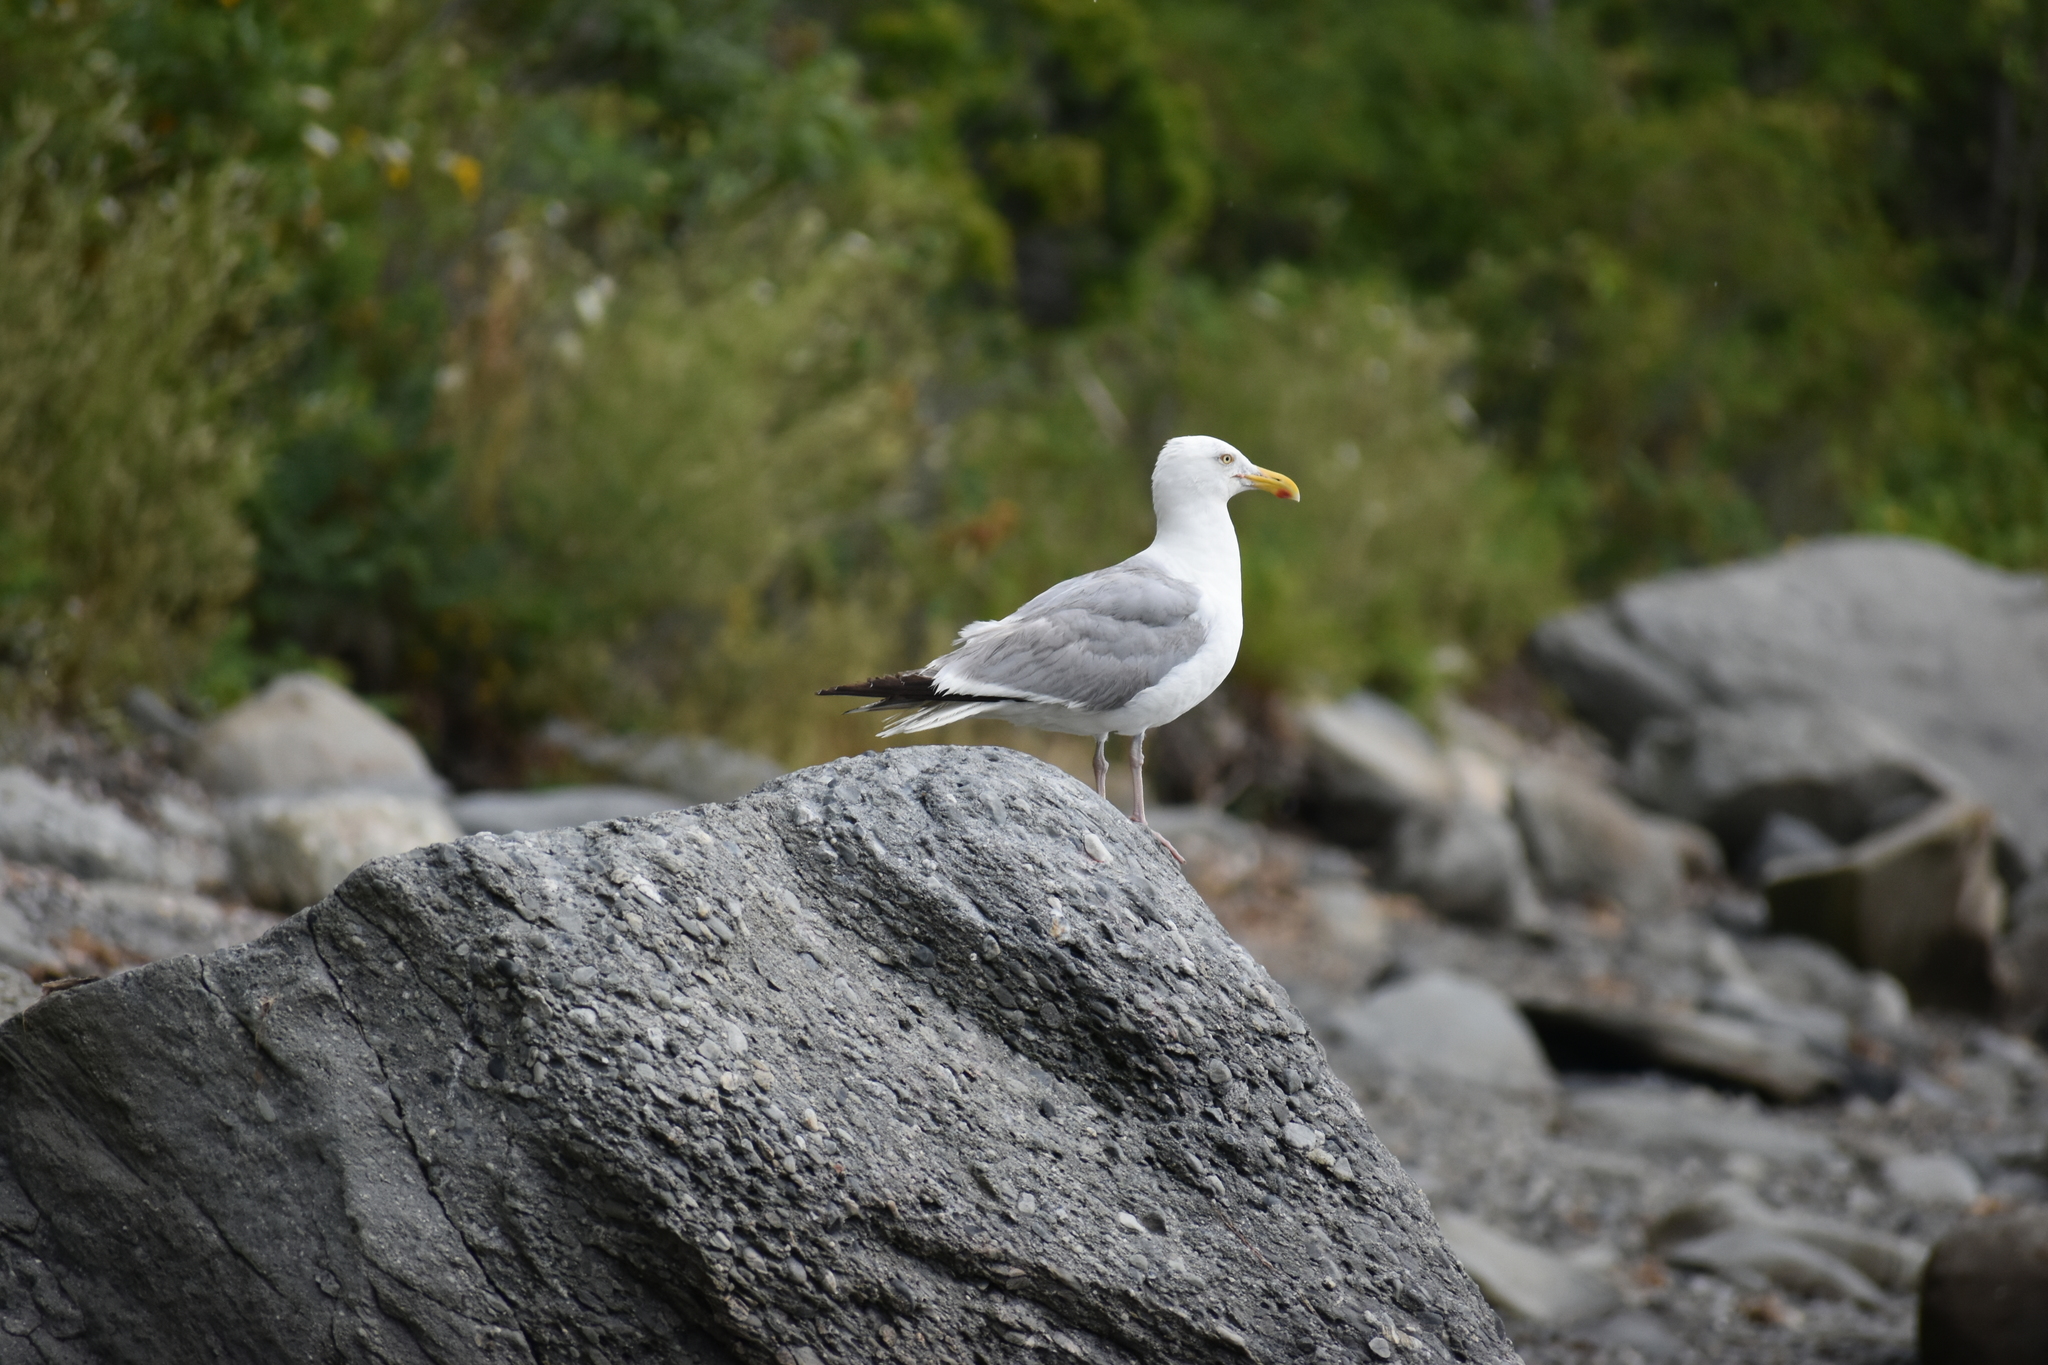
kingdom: Animalia
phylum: Chordata
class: Aves
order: Charadriiformes
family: Laridae
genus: Larus
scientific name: Larus argentatus
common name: Herring gull
